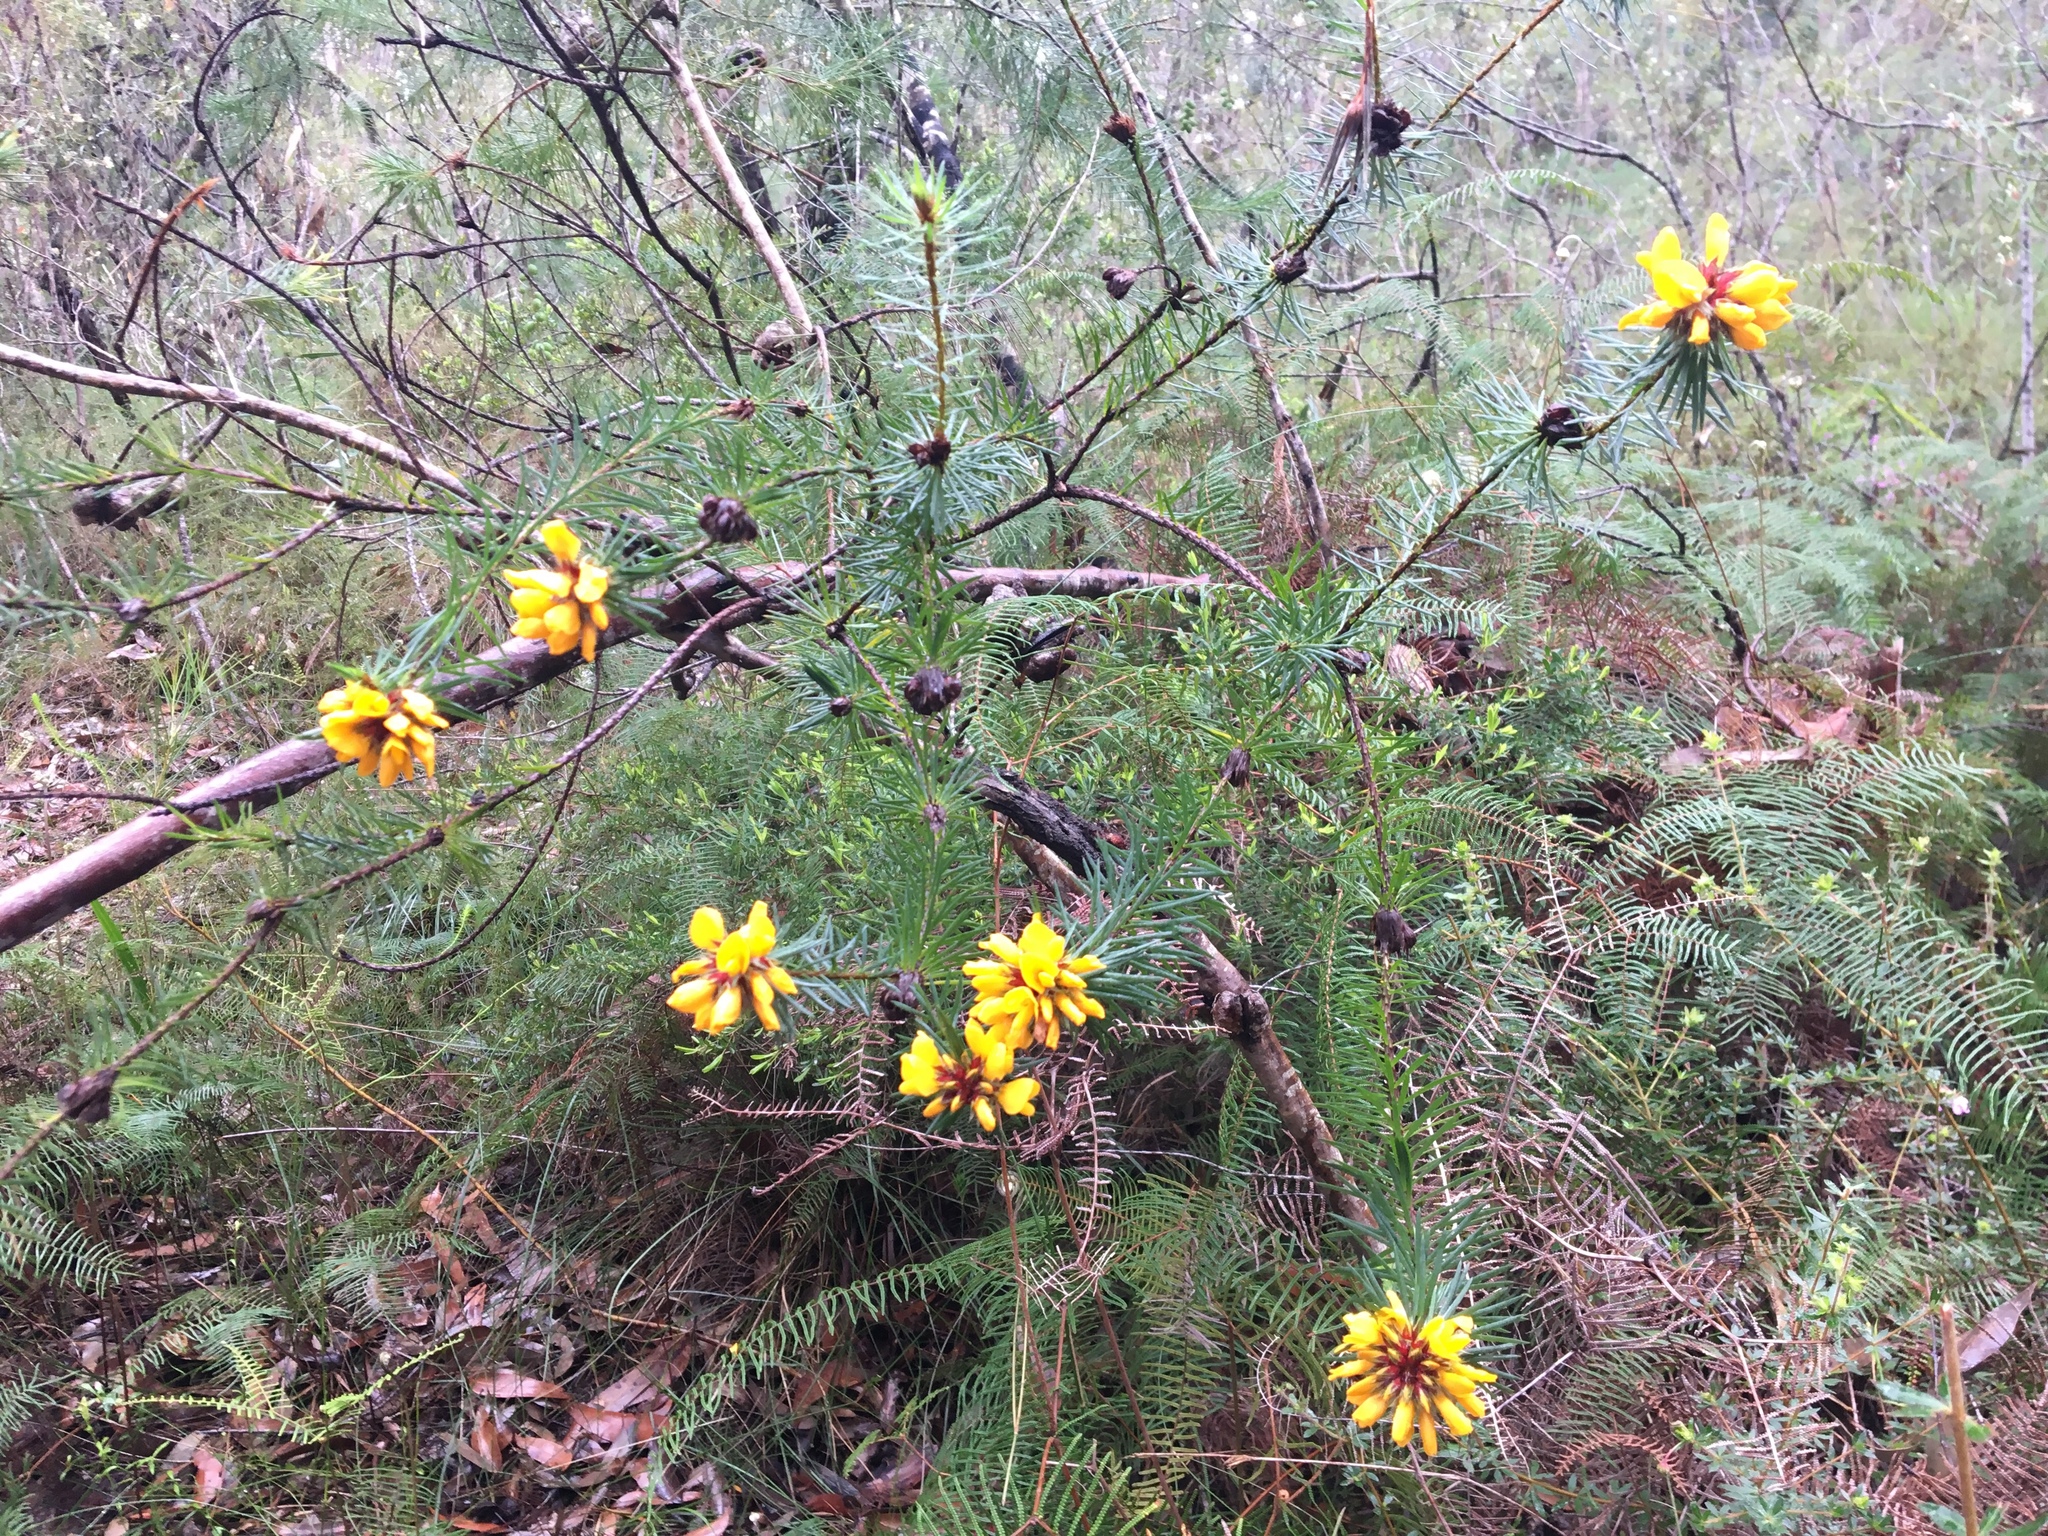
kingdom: Plantae
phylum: Tracheophyta
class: Magnoliopsida
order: Fabales
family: Fabaceae
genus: Pultenaea
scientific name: Pultenaea stipularis
